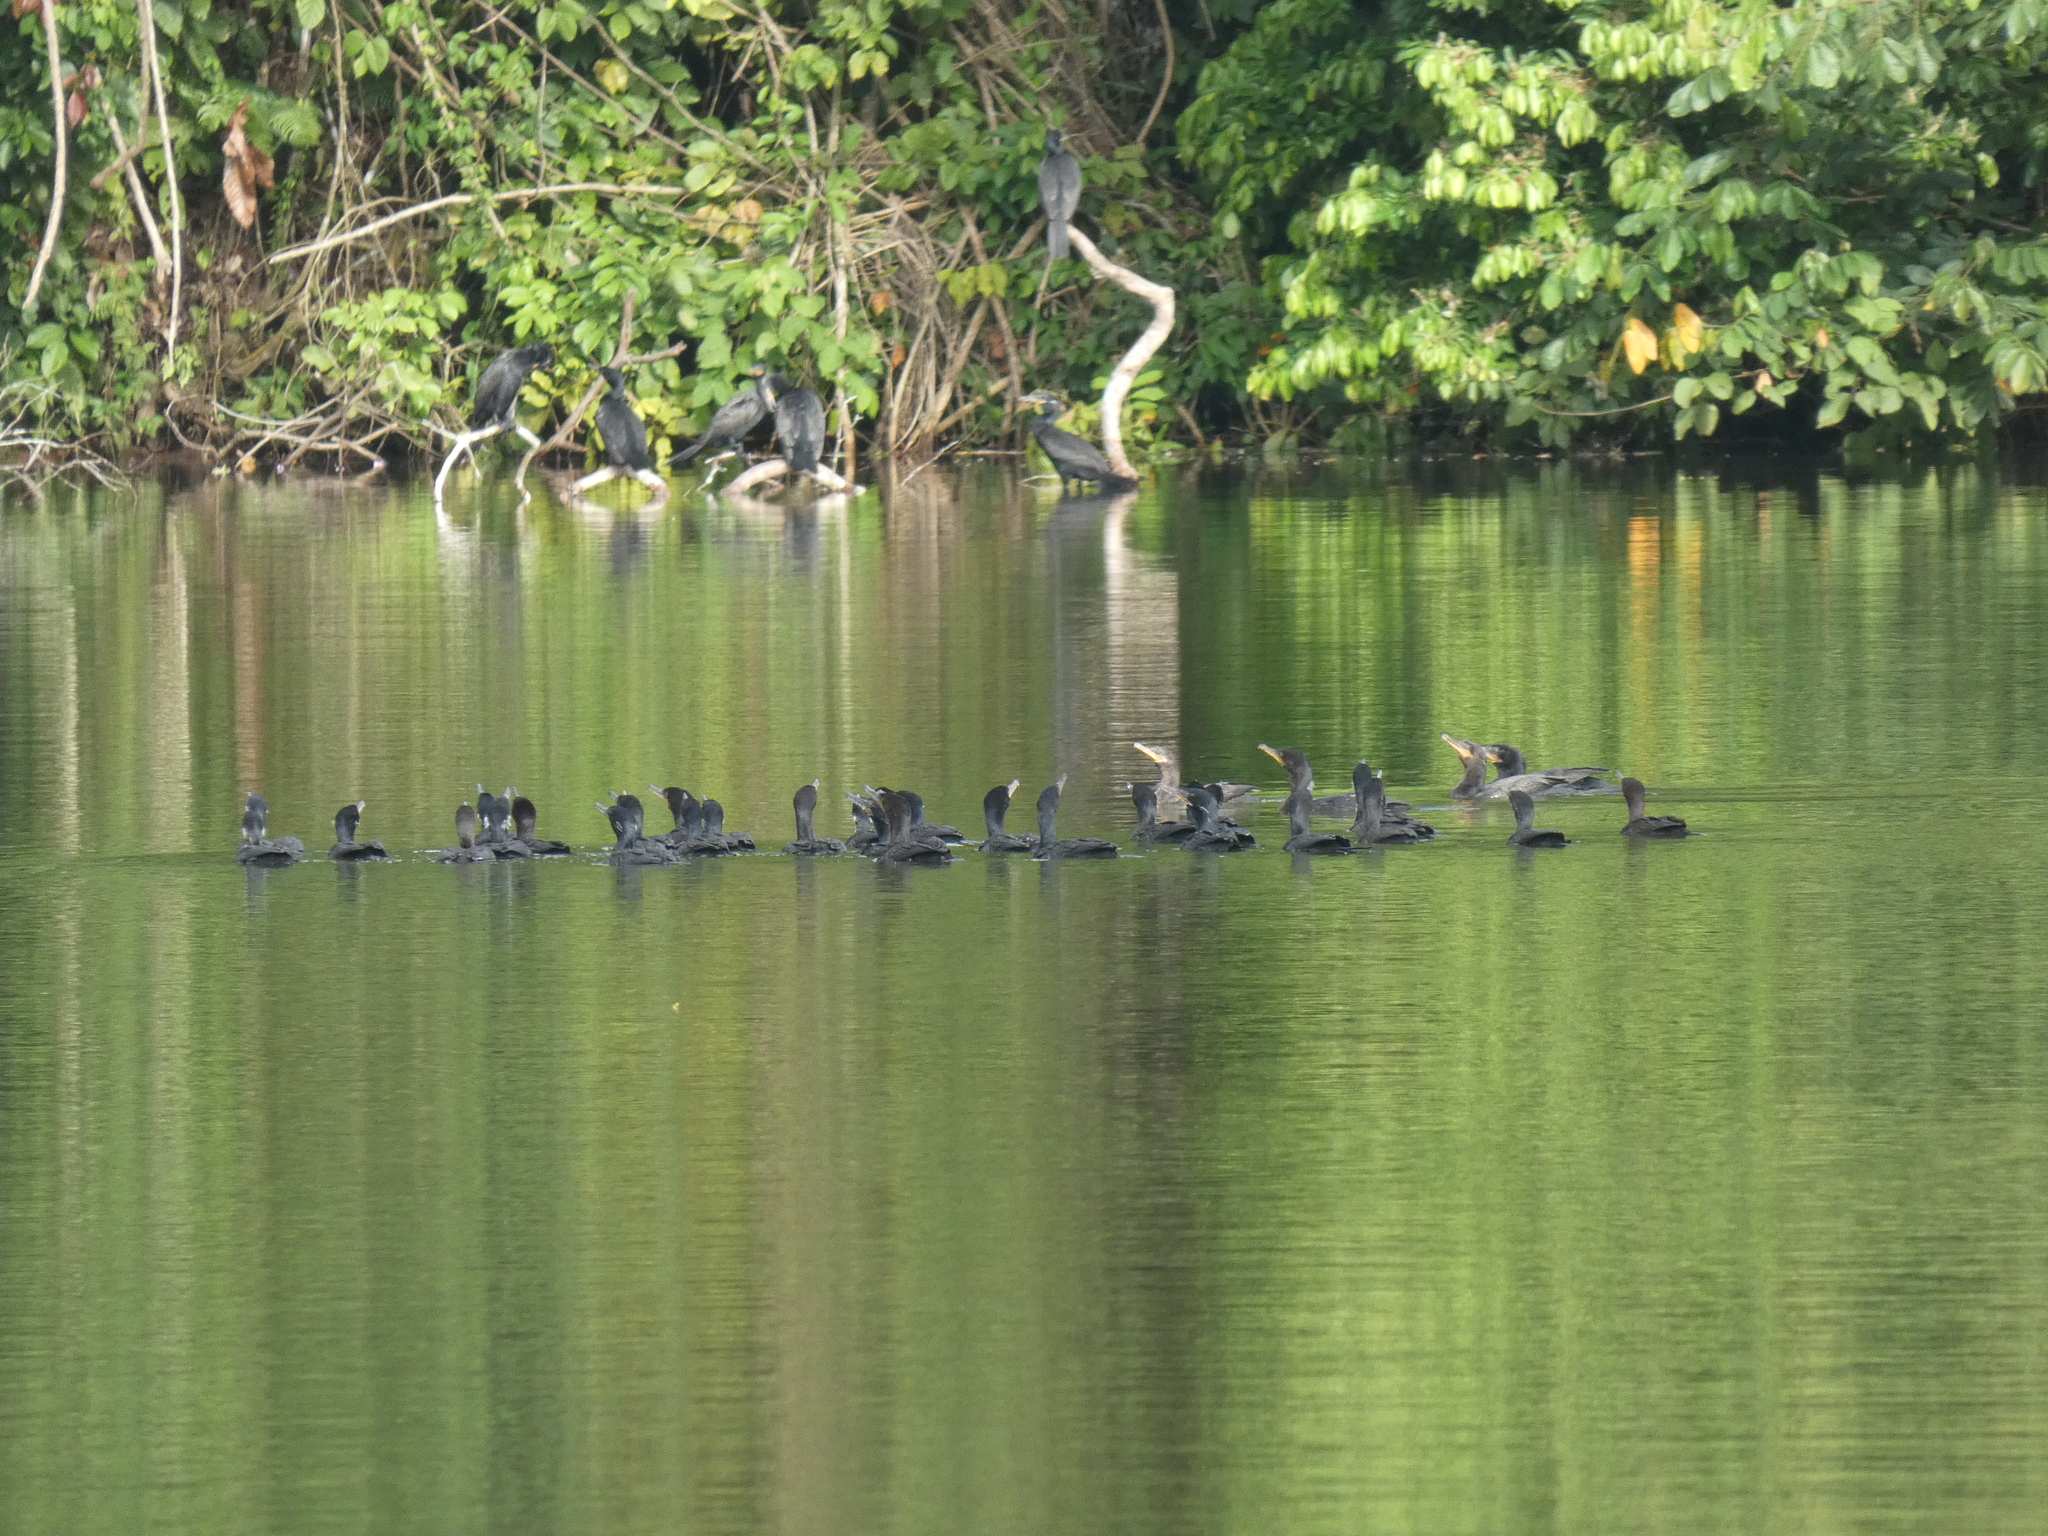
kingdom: Animalia
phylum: Chordata
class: Aves
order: Suliformes
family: Phalacrocoracidae
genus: Phalacrocorax
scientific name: Phalacrocorax brasilianus
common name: Neotropic cormorant
